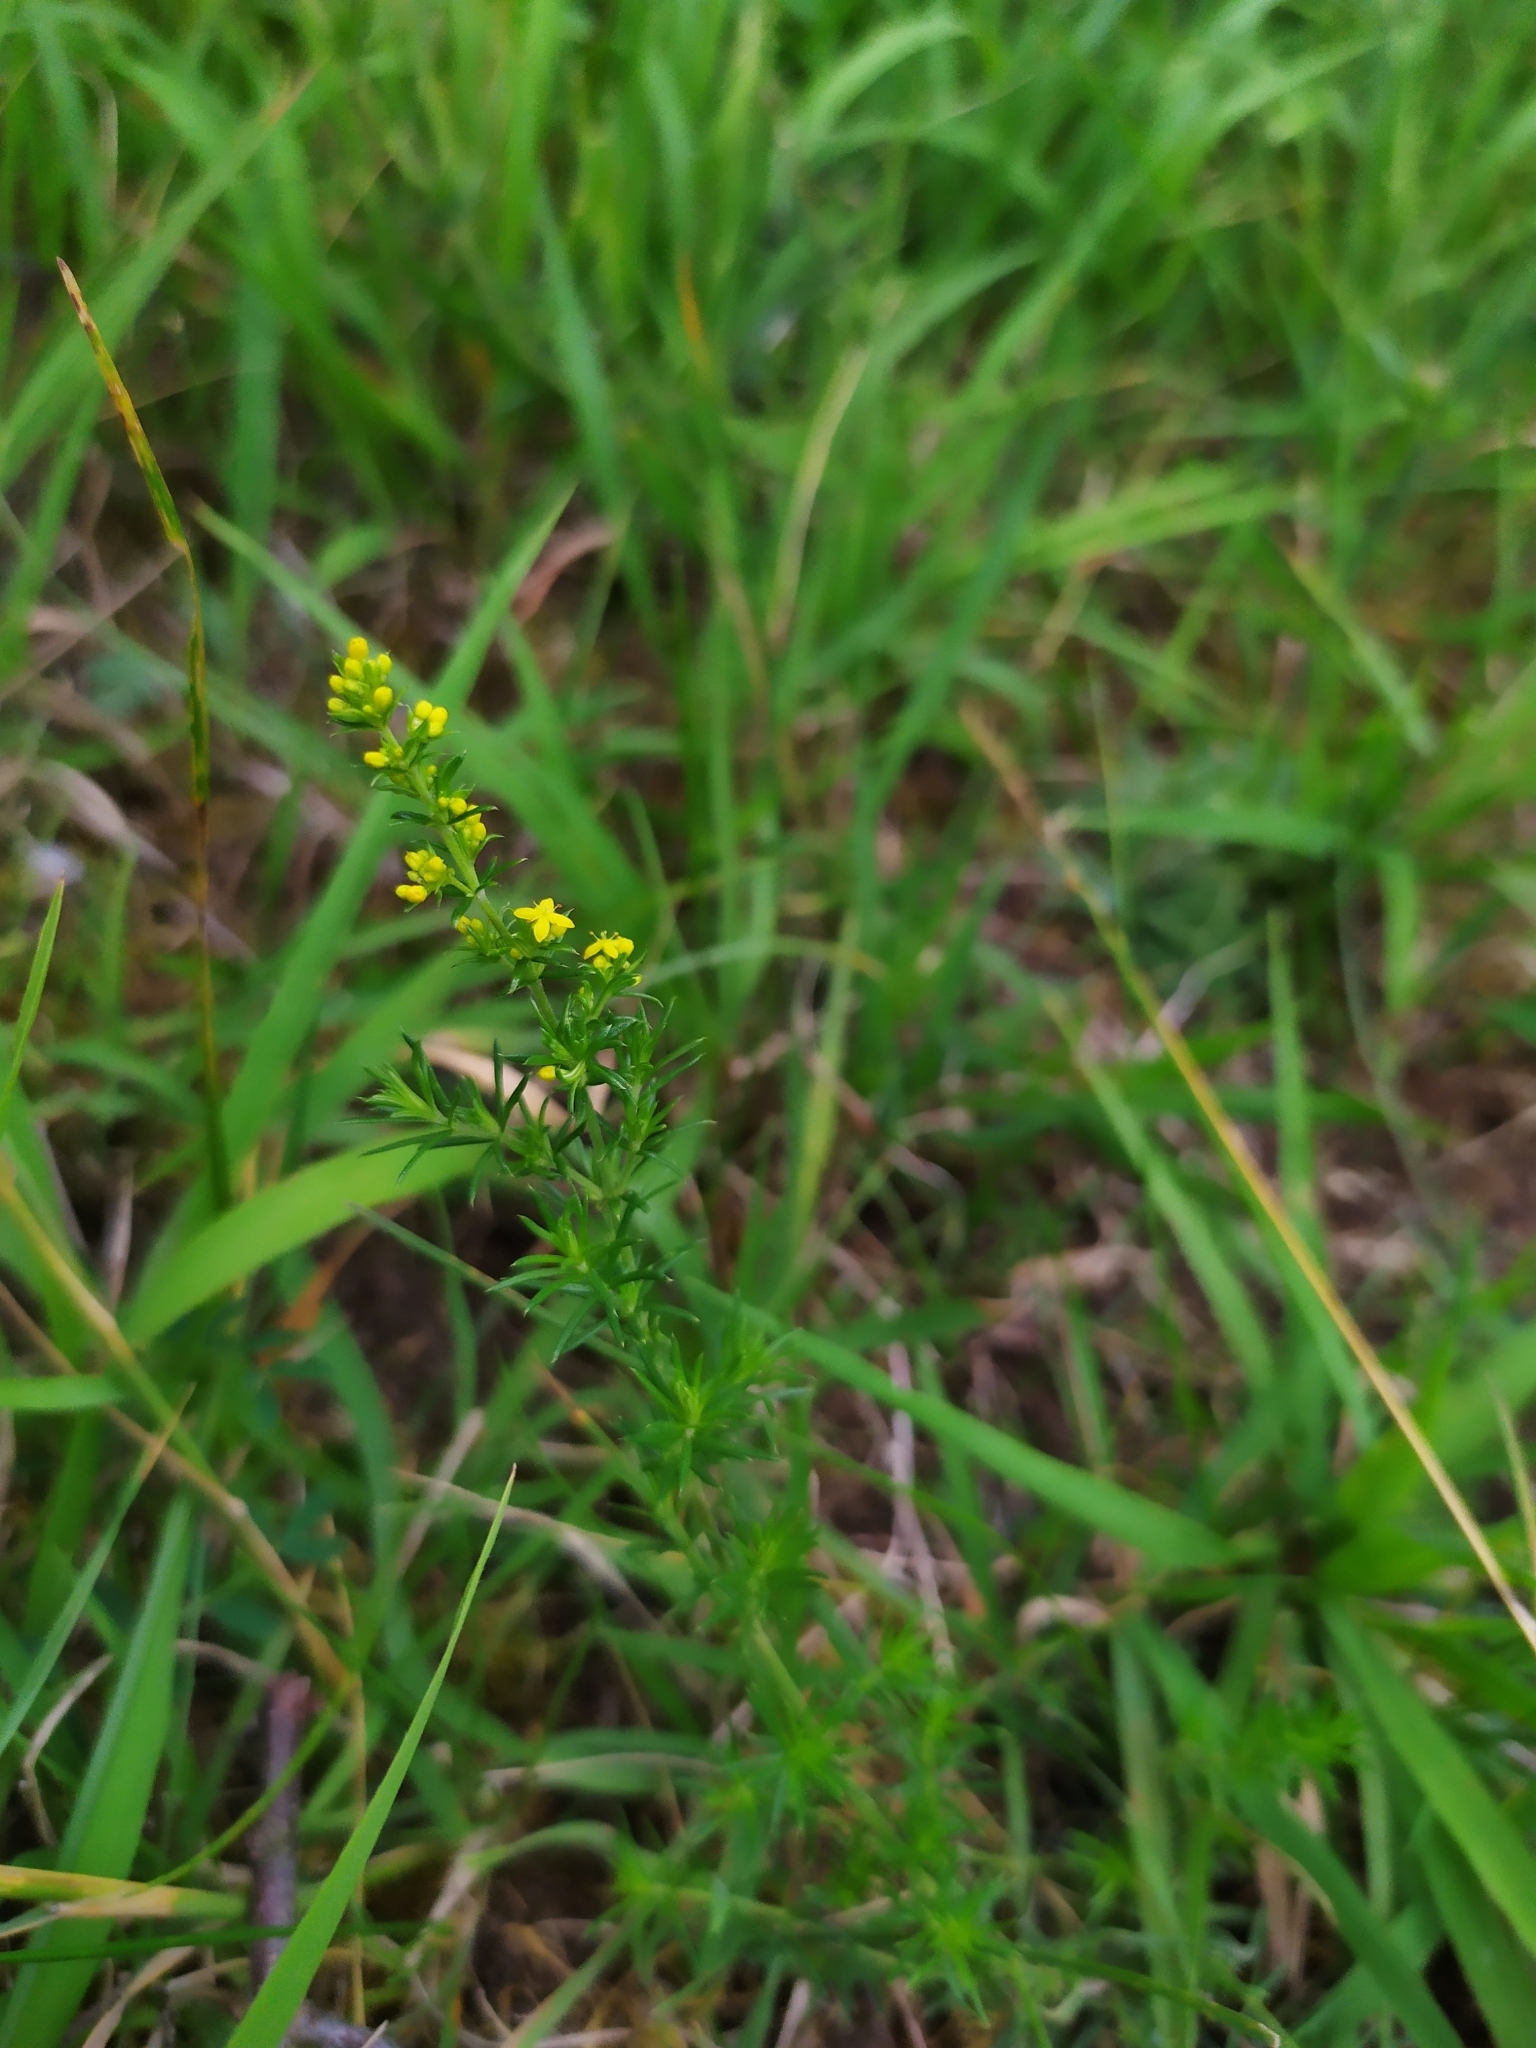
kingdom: Plantae
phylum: Tracheophyta
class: Magnoliopsida
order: Gentianales
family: Rubiaceae
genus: Galium
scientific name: Galium verum
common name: Lady's bedstraw
